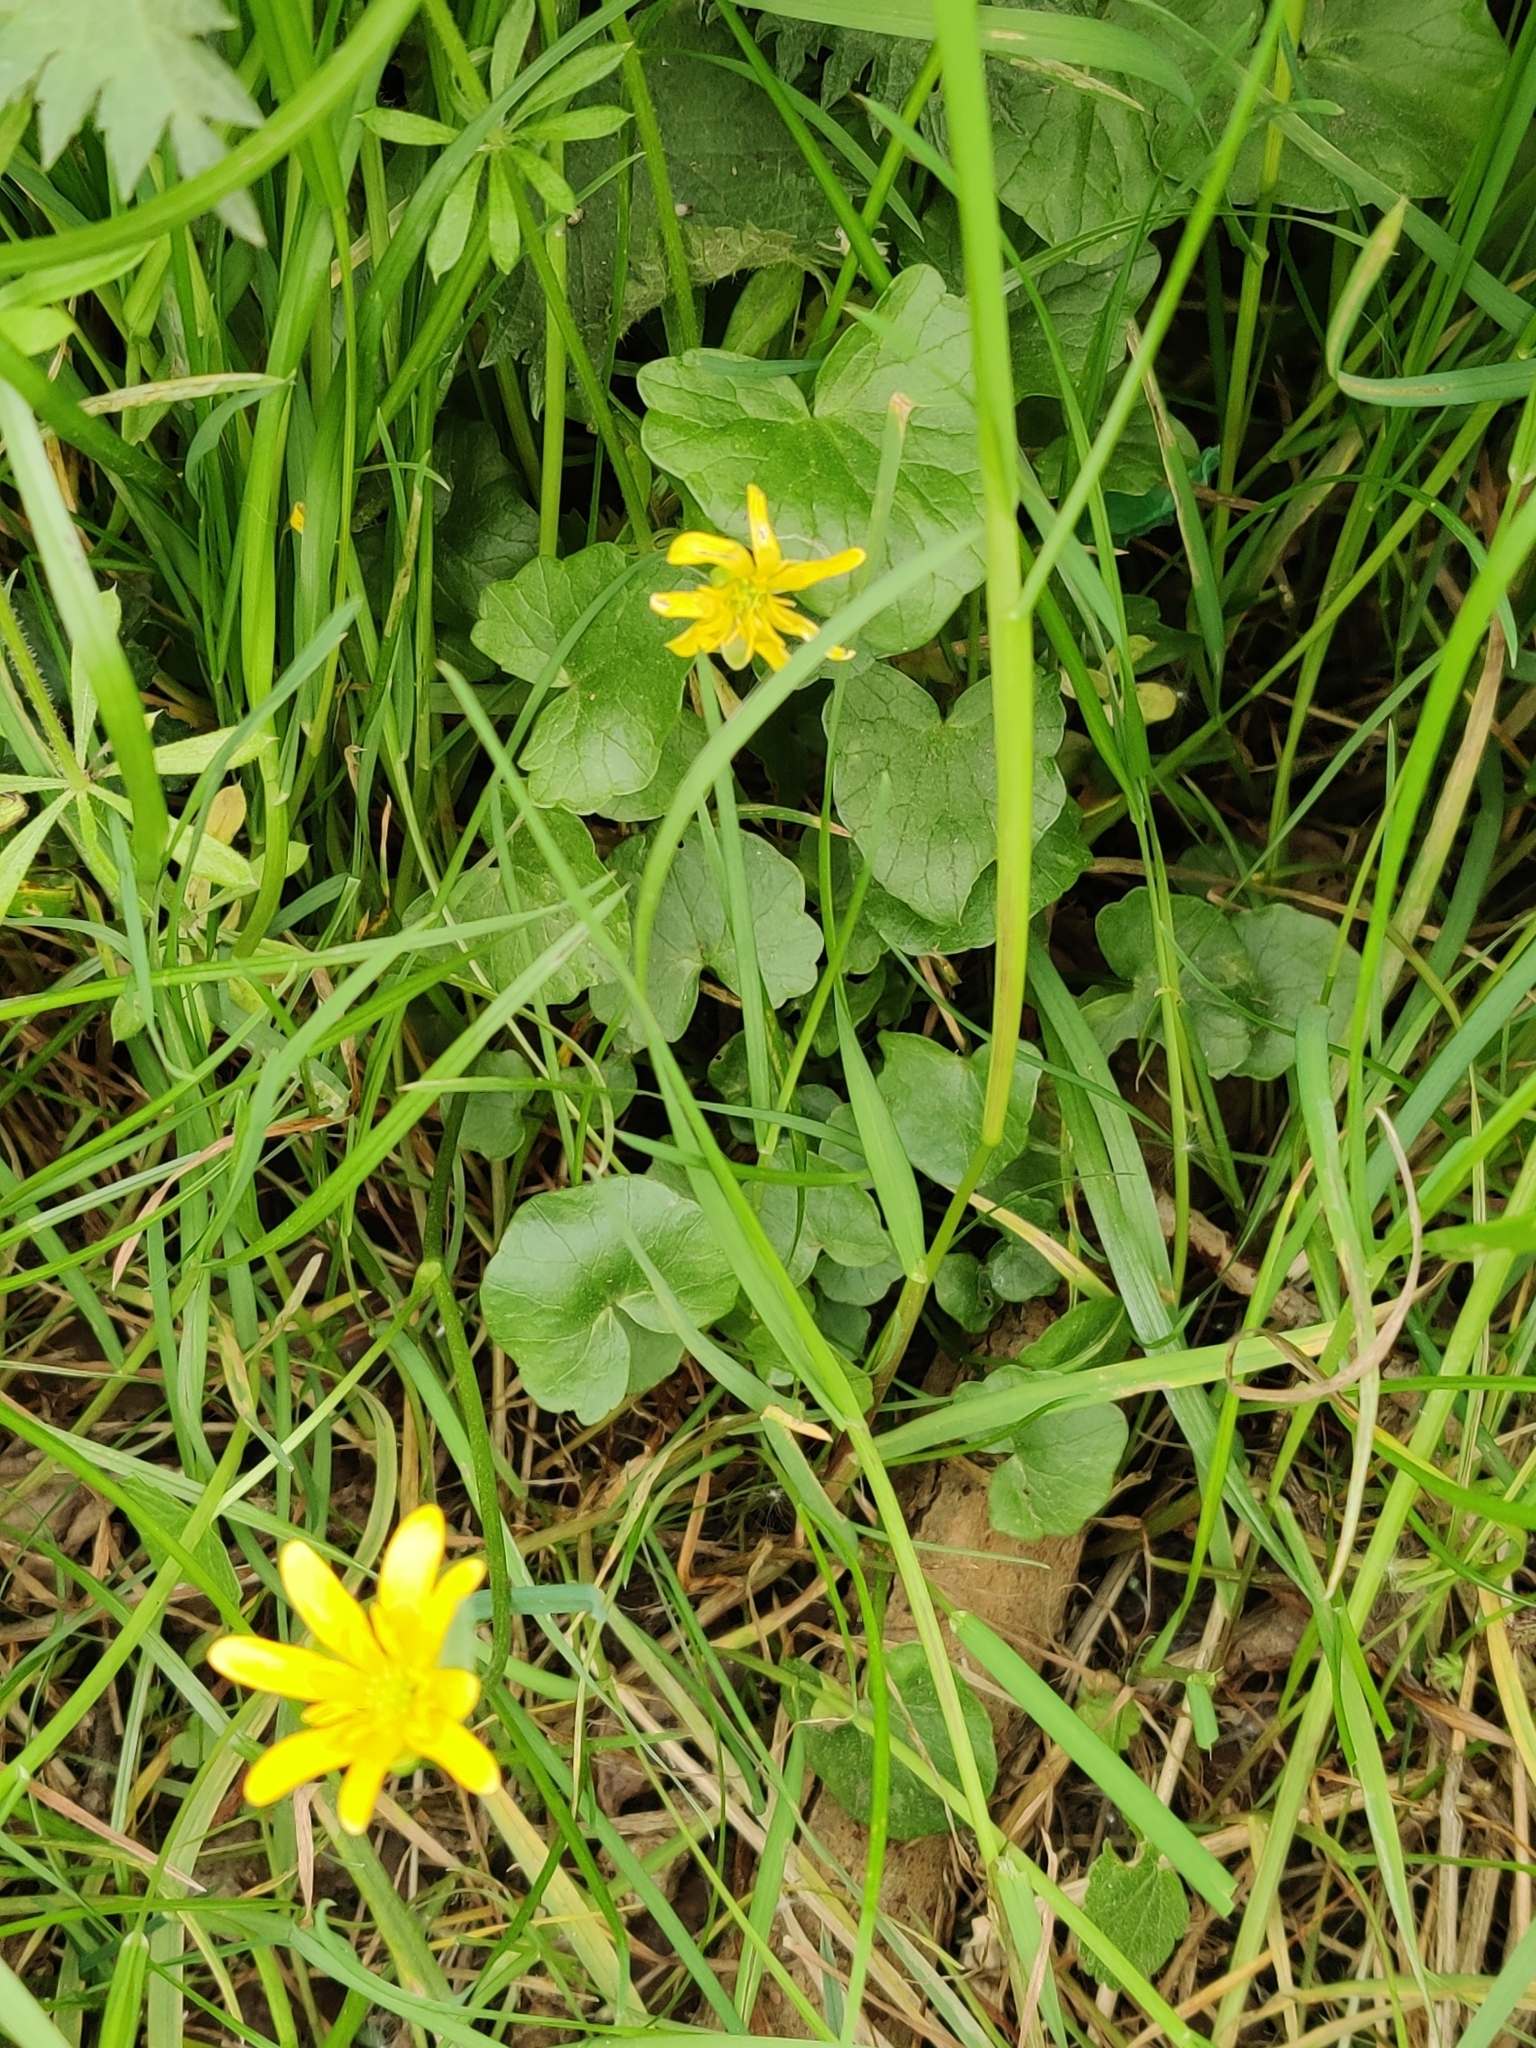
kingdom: Plantae
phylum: Tracheophyta
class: Magnoliopsida
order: Ranunculales
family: Ranunculaceae
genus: Ficaria
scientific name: Ficaria verna
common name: Lesser celandine
